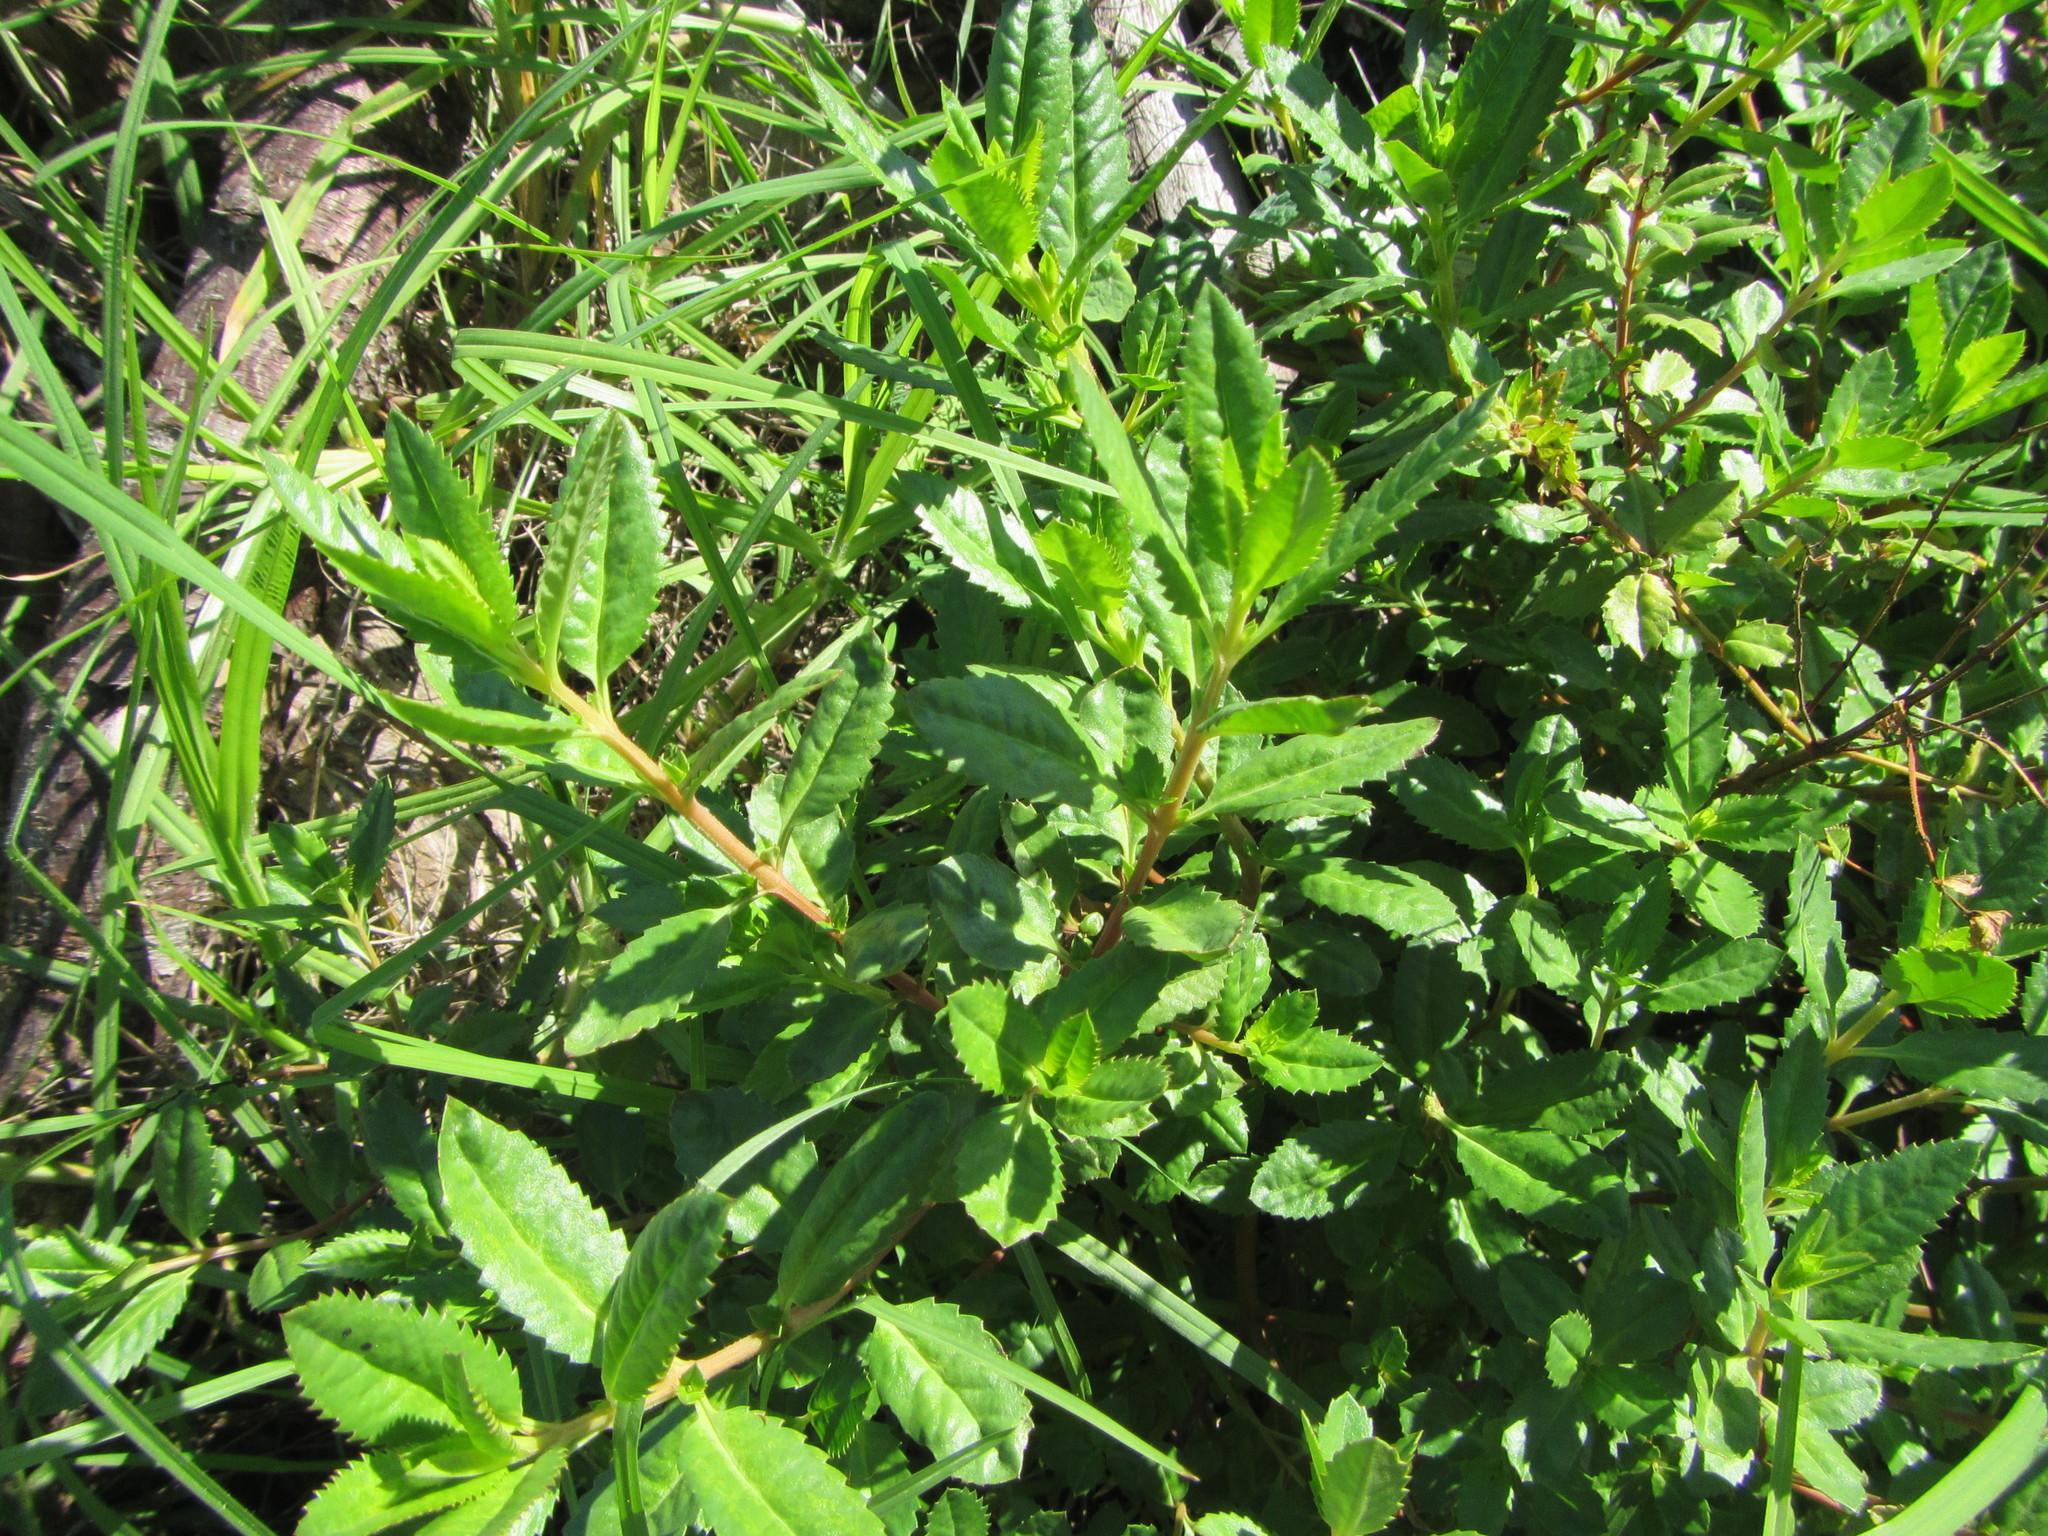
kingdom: Plantae
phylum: Tracheophyta
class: Magnoliopsida
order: Saxifragales
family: Haloragaceae
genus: Haloragis
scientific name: Haloragis erecta
